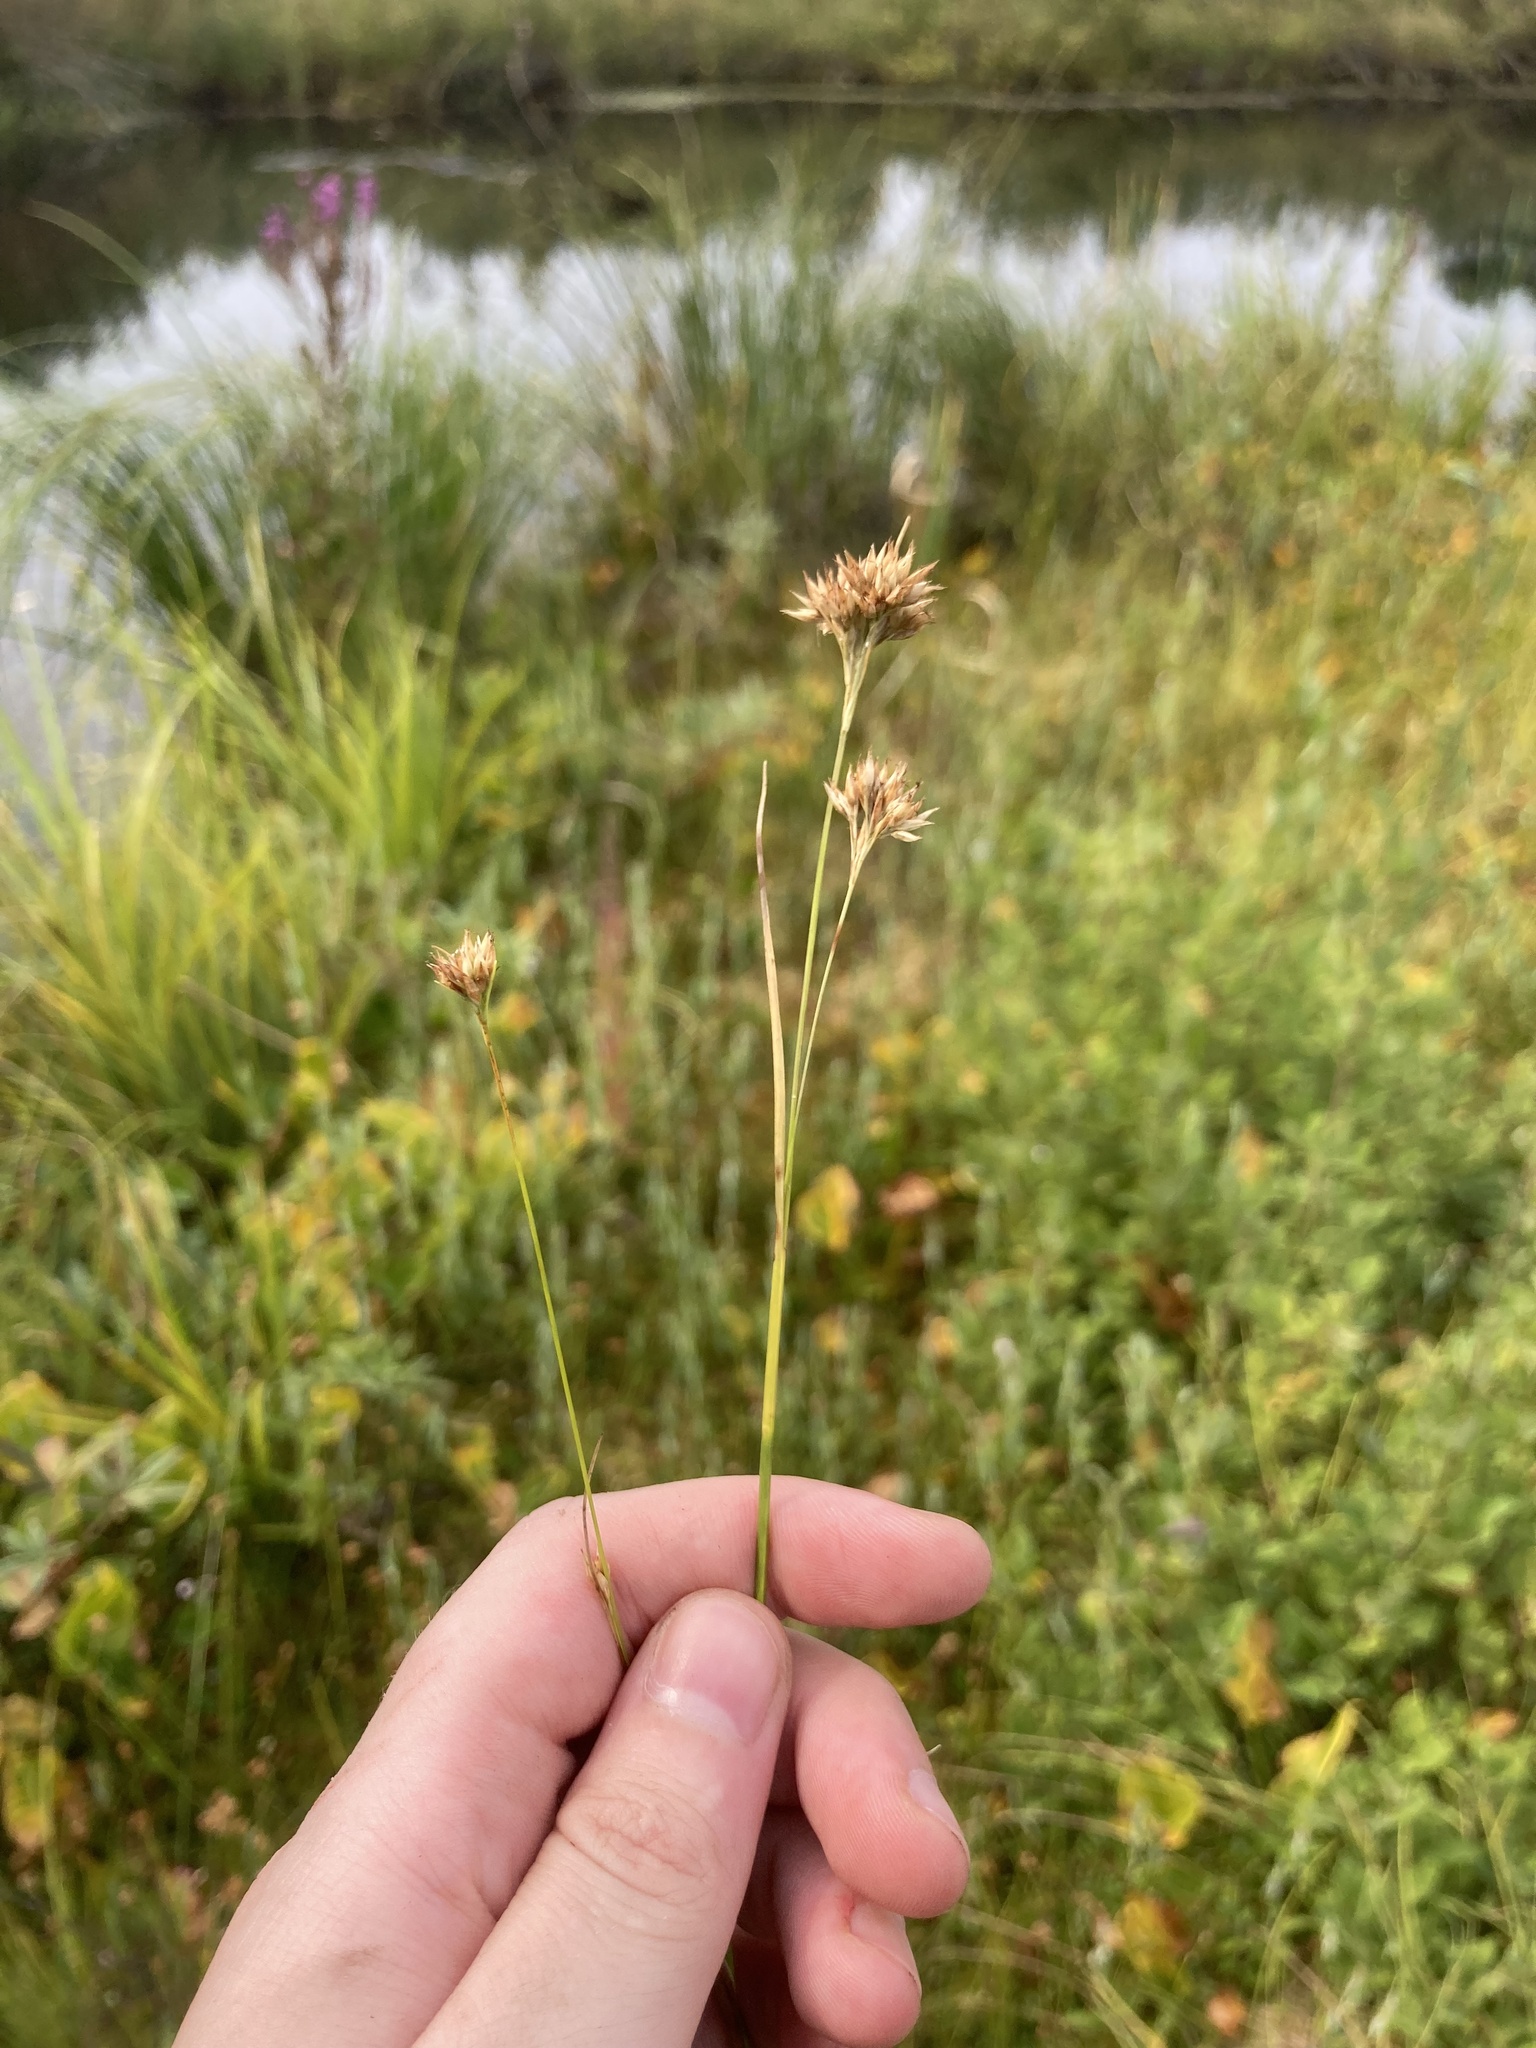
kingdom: Plantae
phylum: Tracheophyta
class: Liliopsida
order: Poales
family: Cyperaceae
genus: Rhynchospora
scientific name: Rhynchospora alba
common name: White beak-sedge
